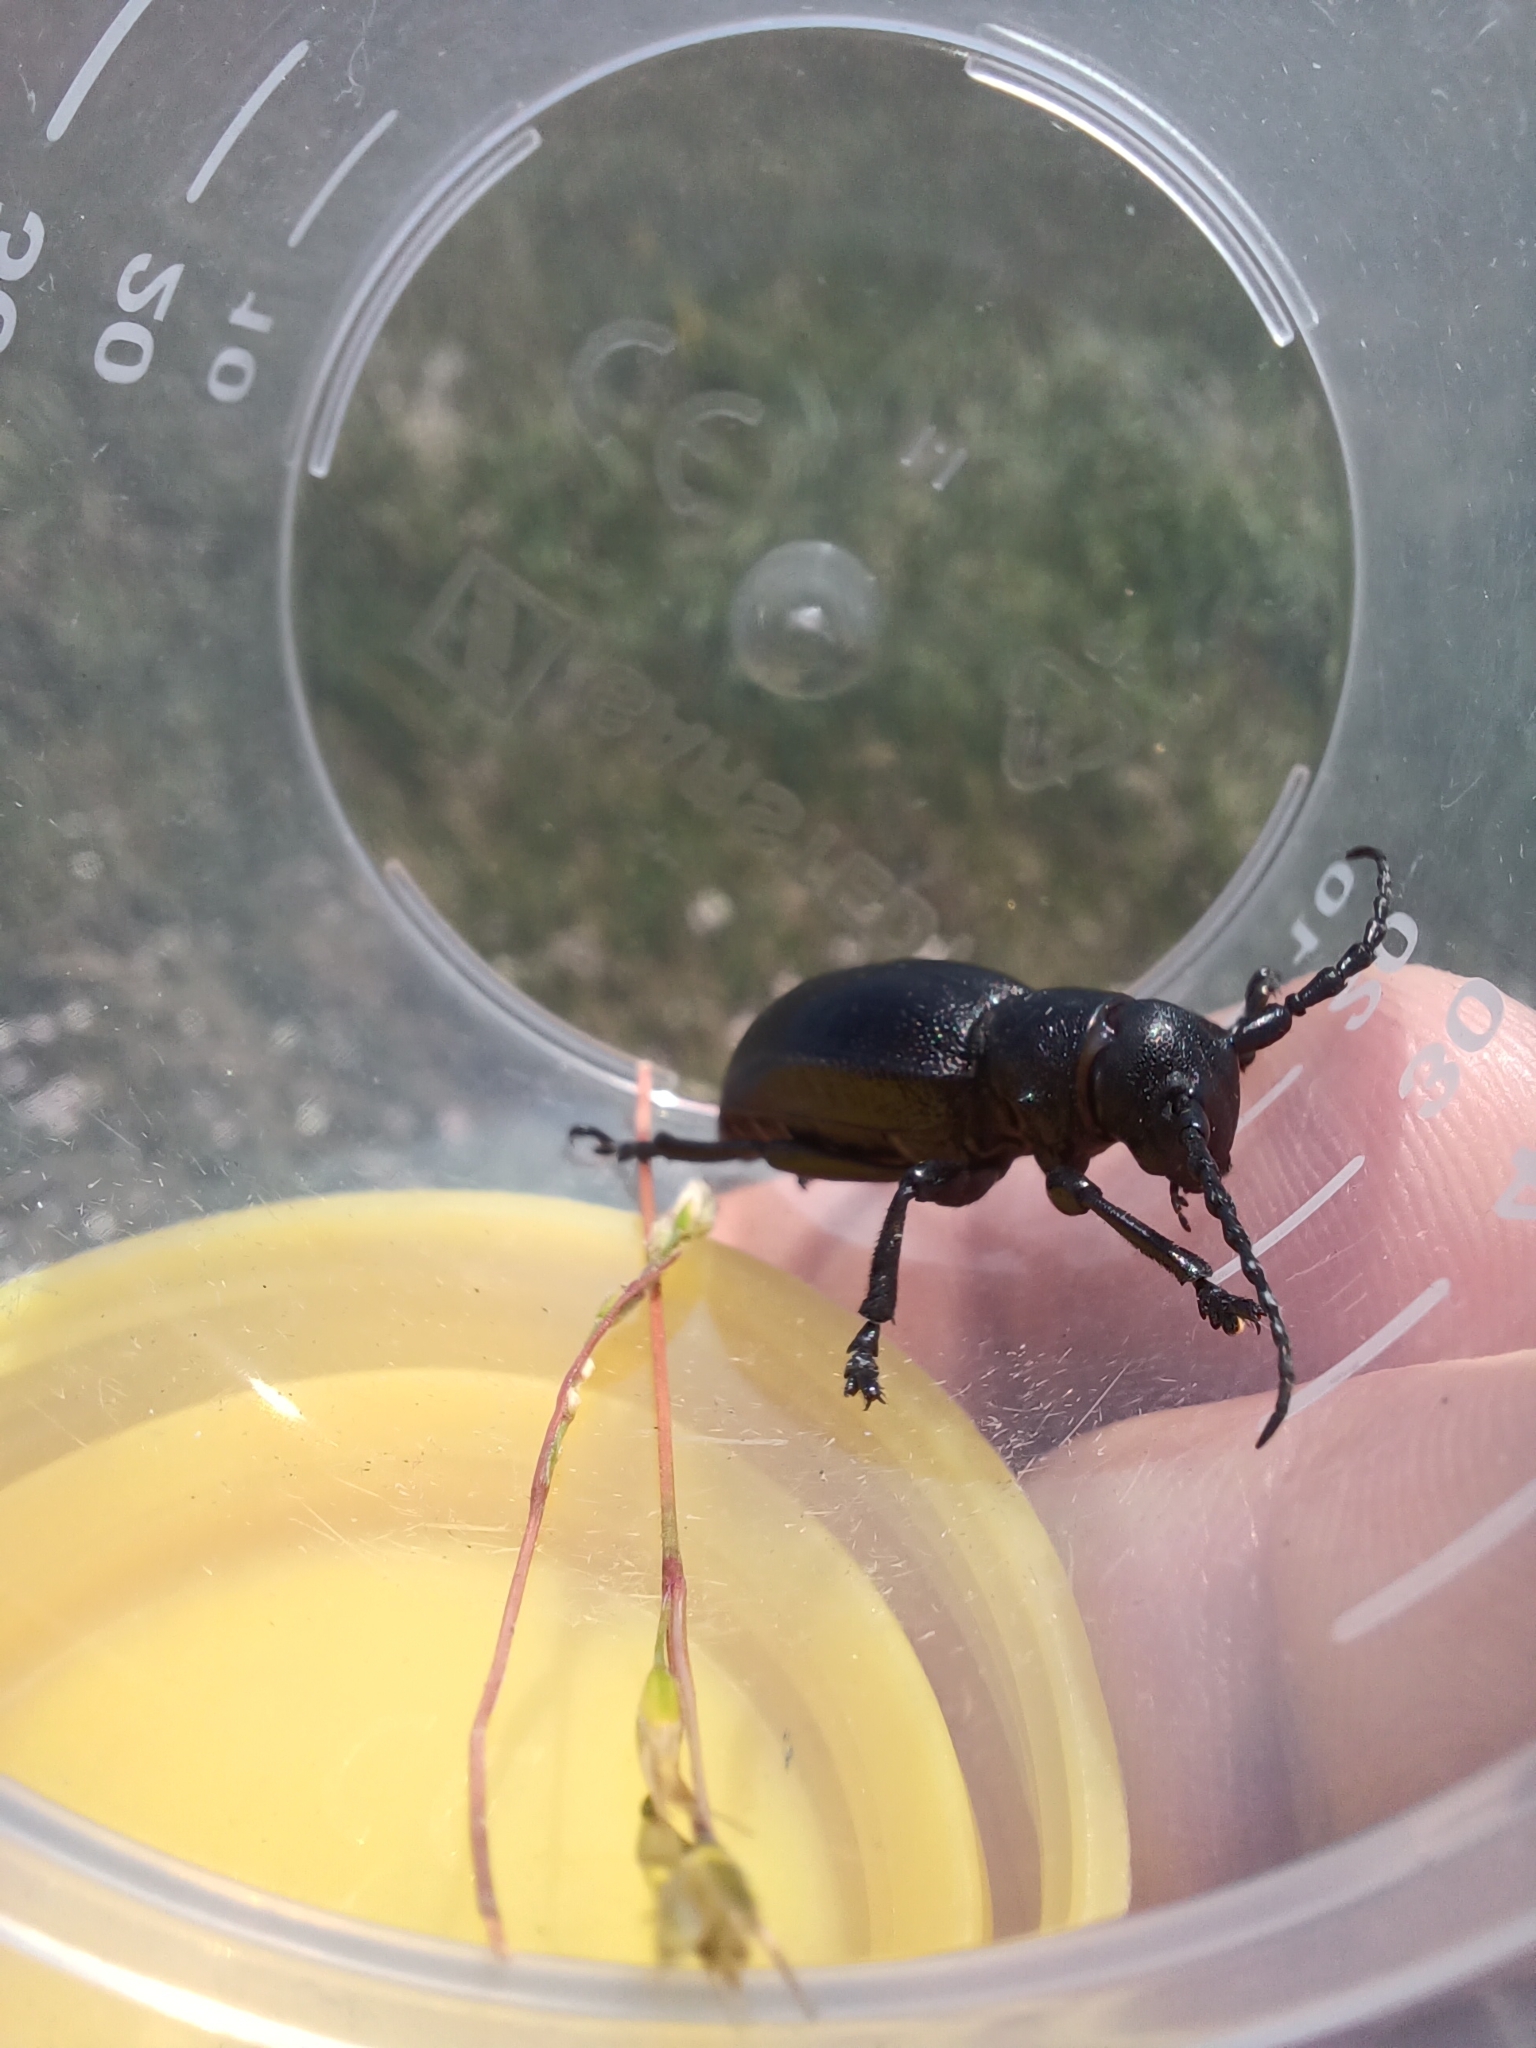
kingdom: Animalia
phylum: Arthropoda
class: Insecta
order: Coleoptera
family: Cerambycidae
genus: Dorcadion
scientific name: Dorcadion aethiops
